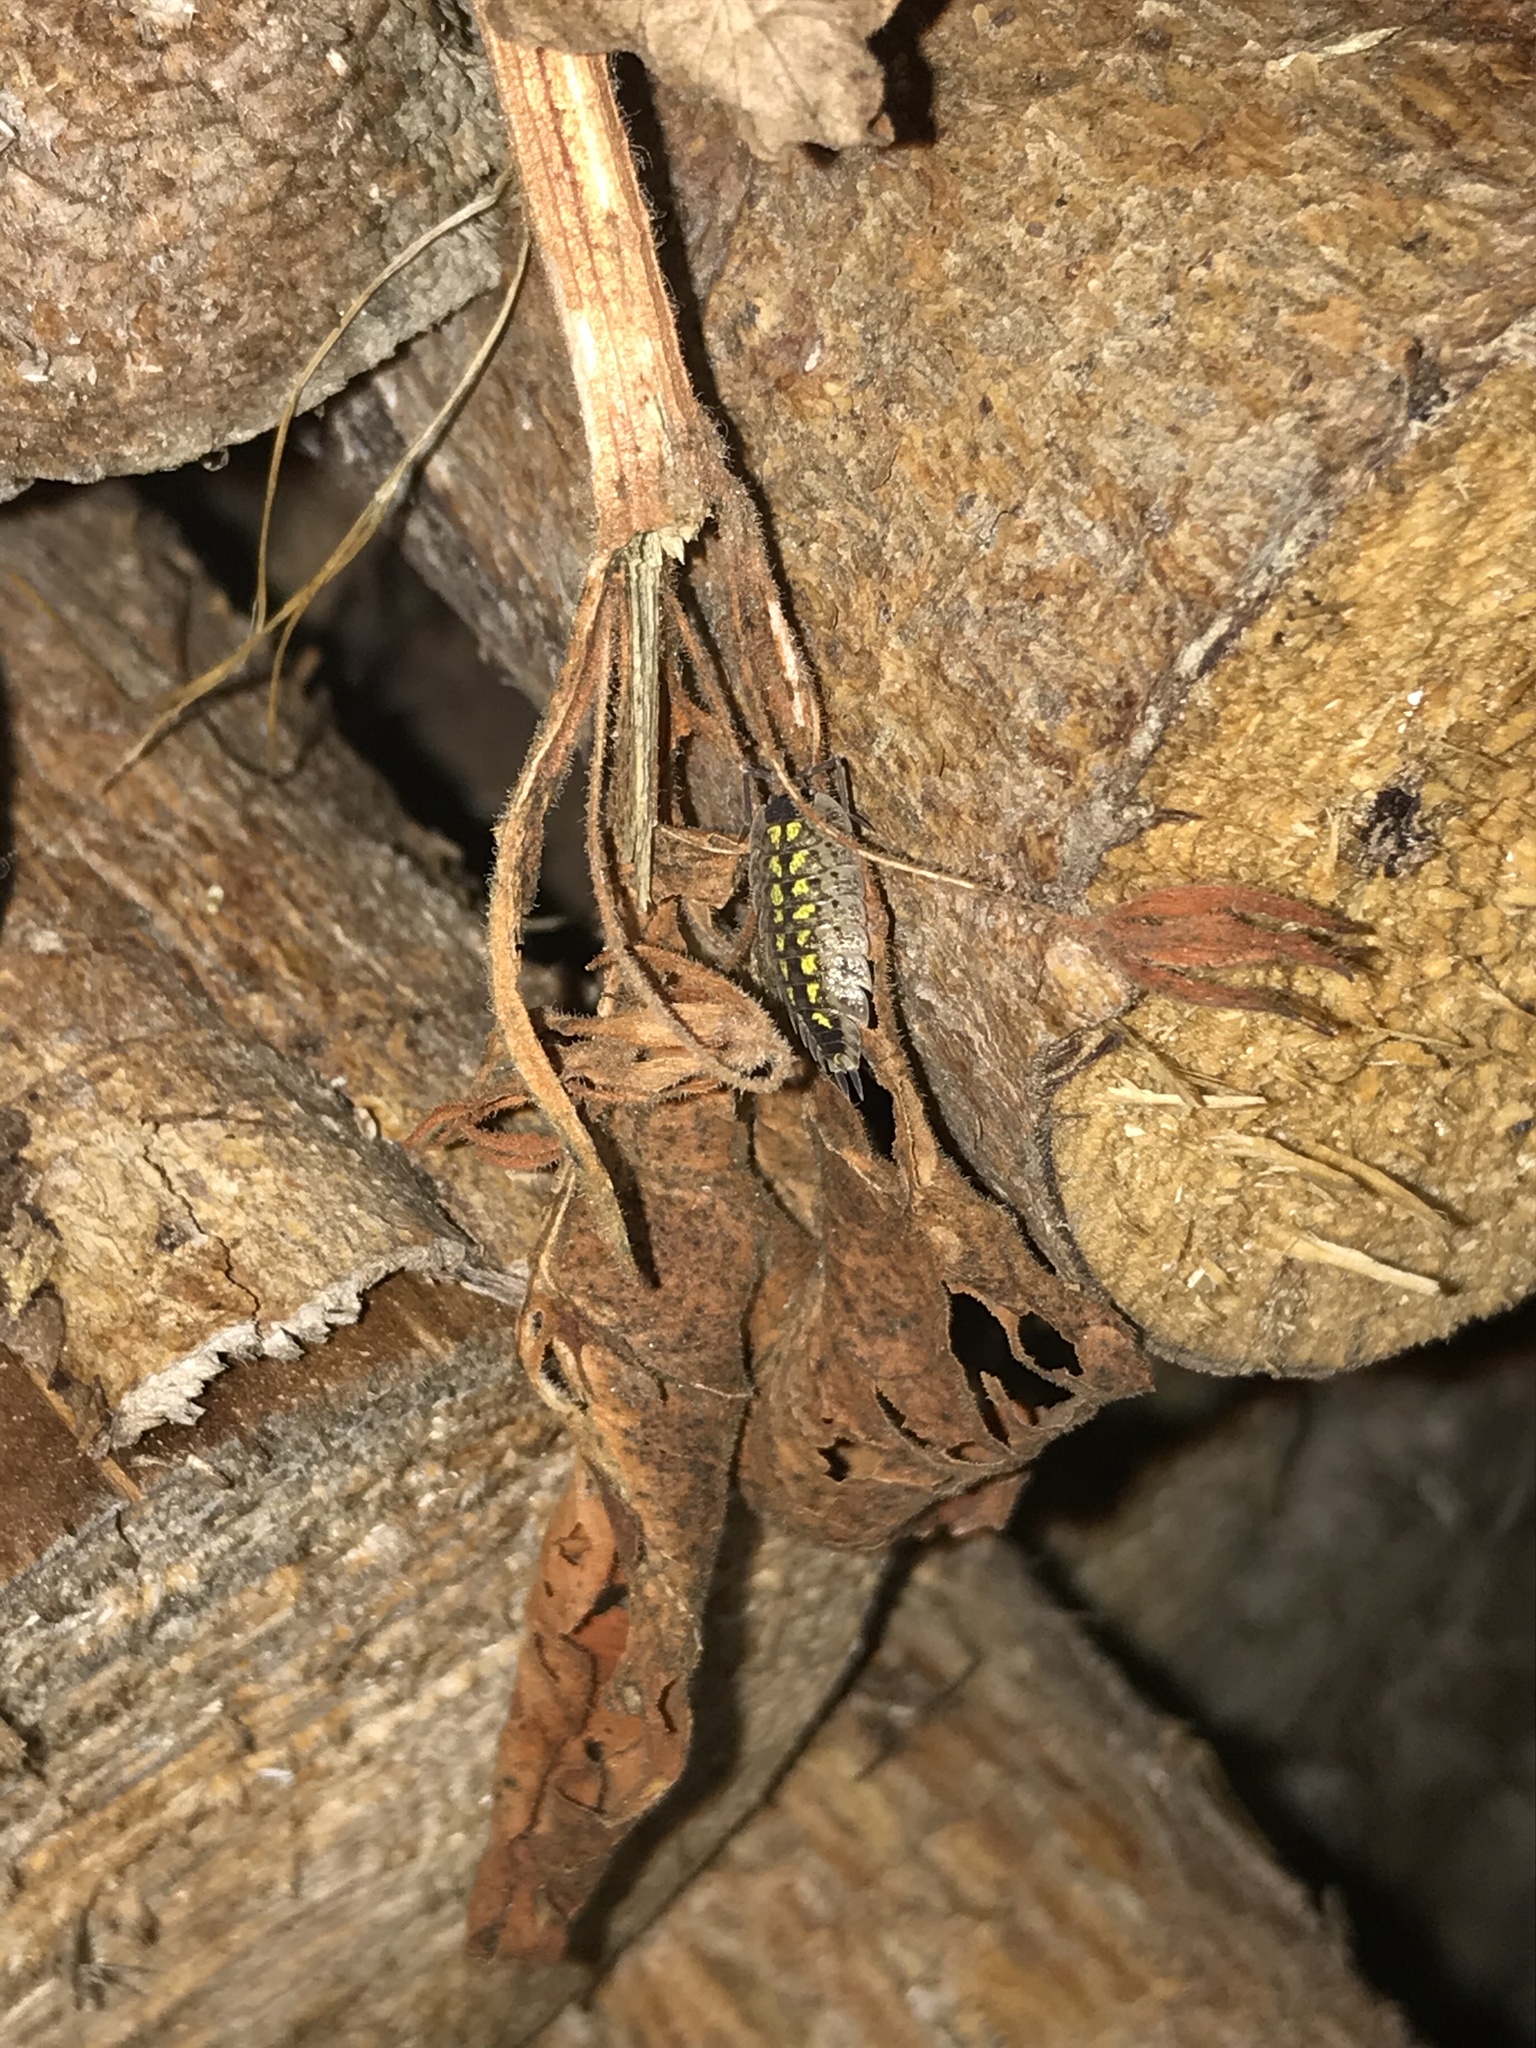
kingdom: Animalia
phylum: Arthropoda
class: Malacostraca
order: Isopoda
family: Porcellionidae
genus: Porcellio
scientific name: Porcellio spinicornis
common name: Painted woodlouse
